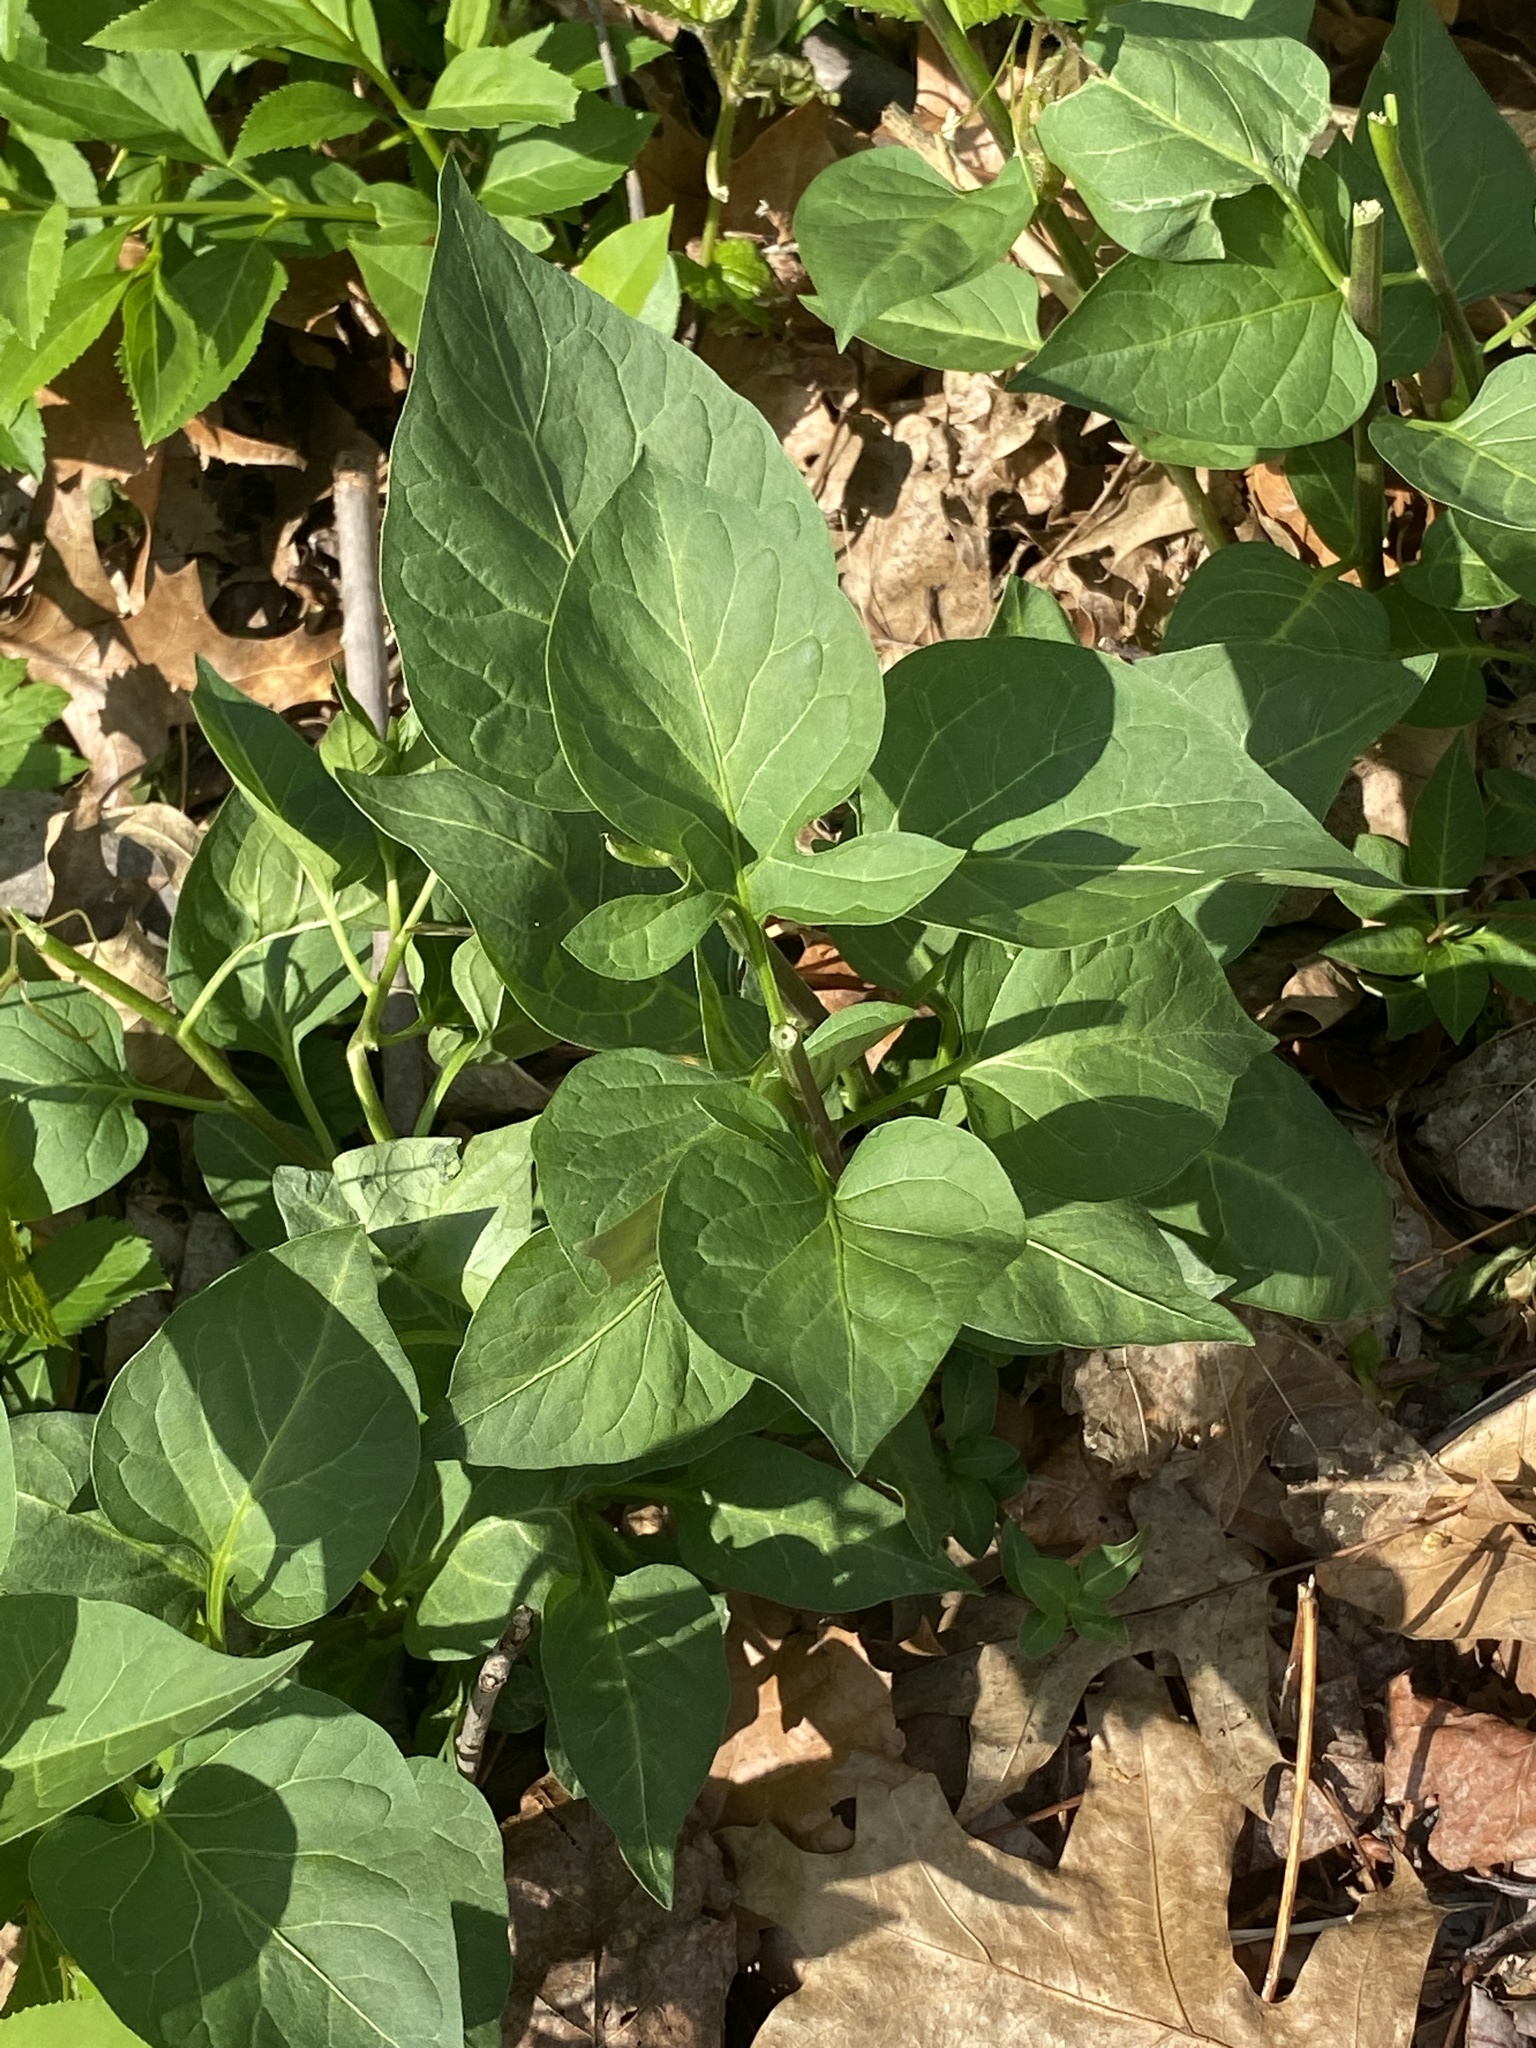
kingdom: Plantae
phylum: Tracheophyta
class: Magnoliopsida
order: Solanales
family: Solanaceae
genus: Solanum
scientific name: Solanum dulcamara
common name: Climbing nightshade
